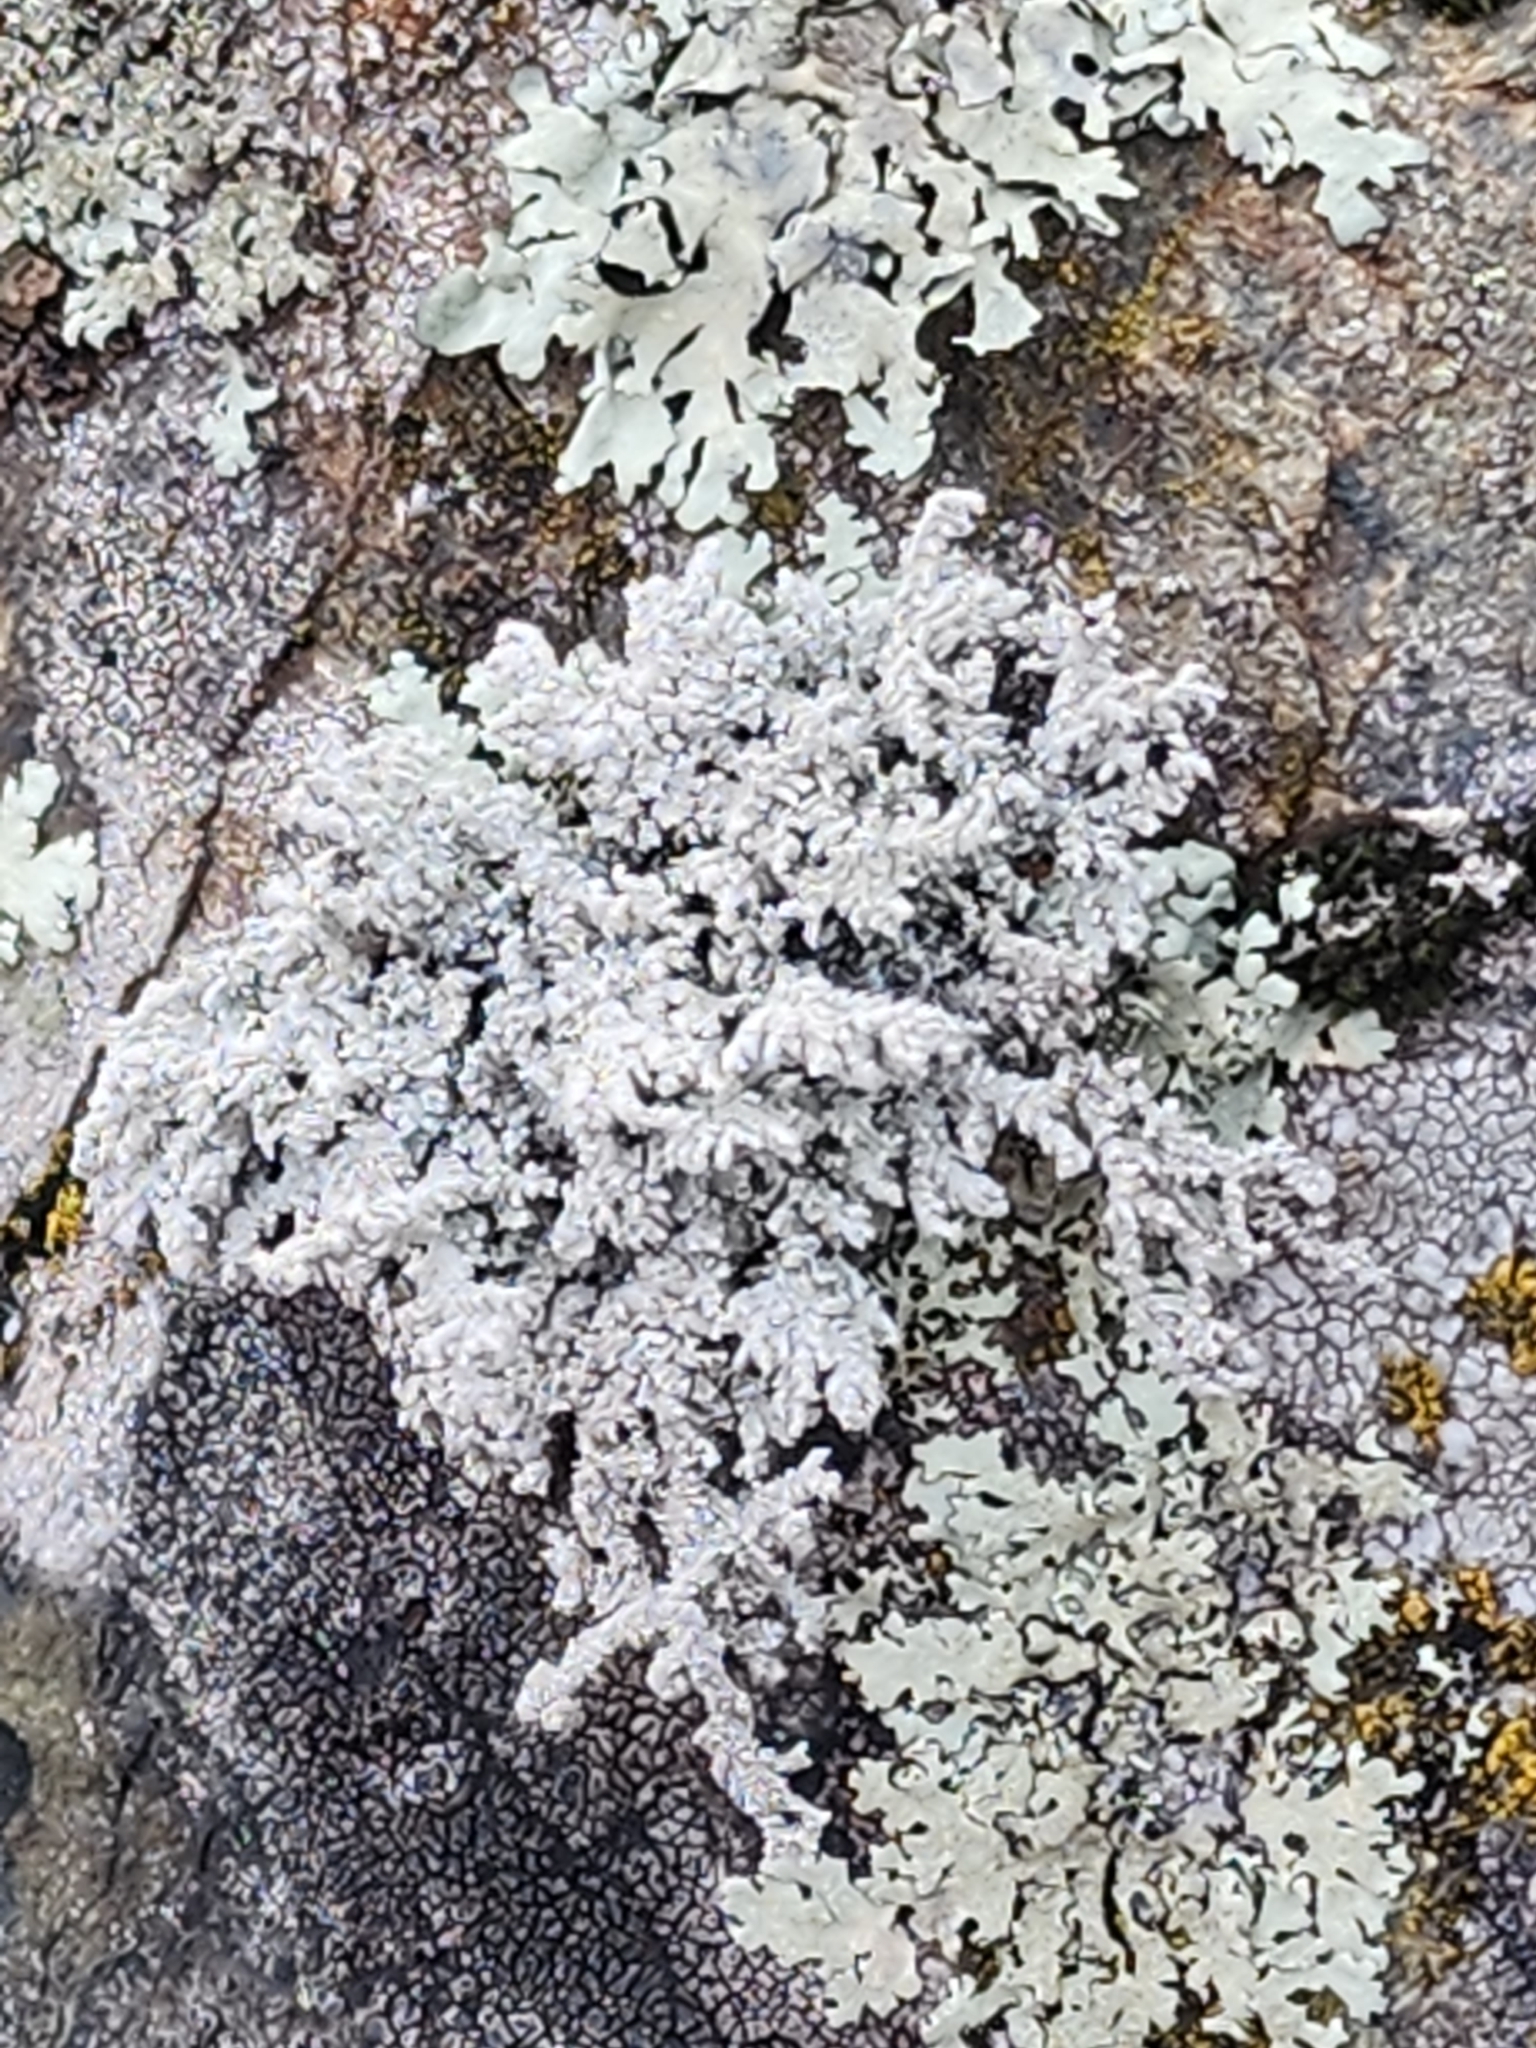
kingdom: Fungi
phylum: Ascomycota
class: Lecanoromycetes
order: Lecanorales
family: Stereocaulaceae
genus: Stereocaulon
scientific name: Stereocaulon paschale
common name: Cottontail foam lichen
